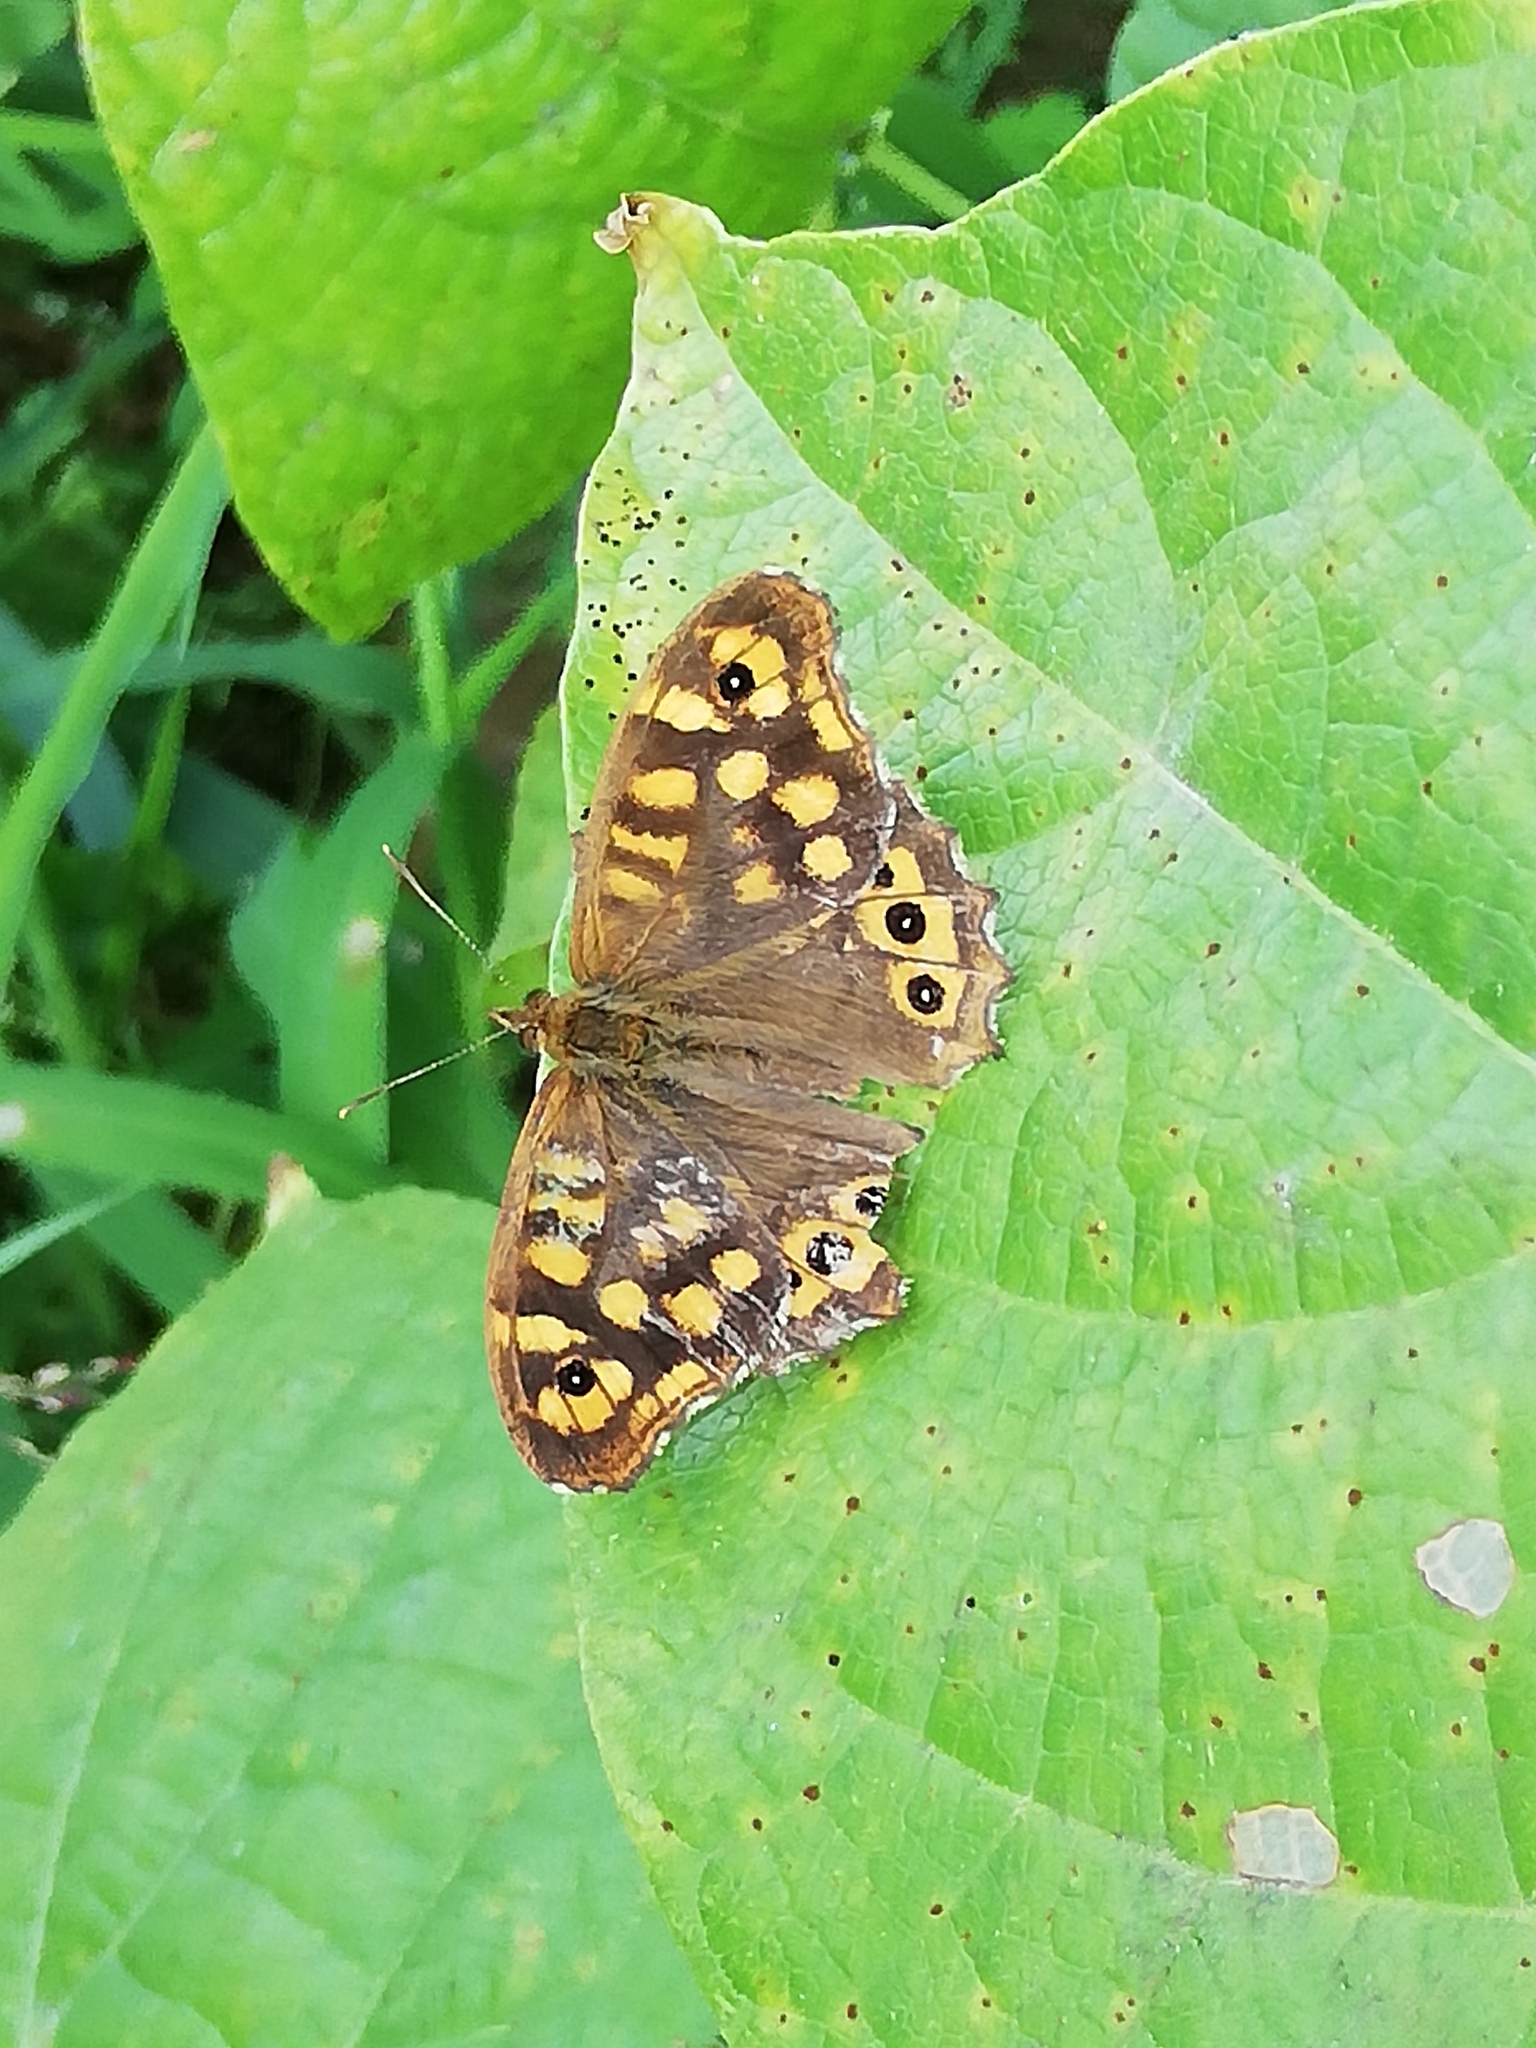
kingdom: Animalia
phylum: Arthropoda
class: Insecta
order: Lepidoptera
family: Nymphalidae
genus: Pararge
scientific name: Pararge aegeria
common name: Speckled wood
